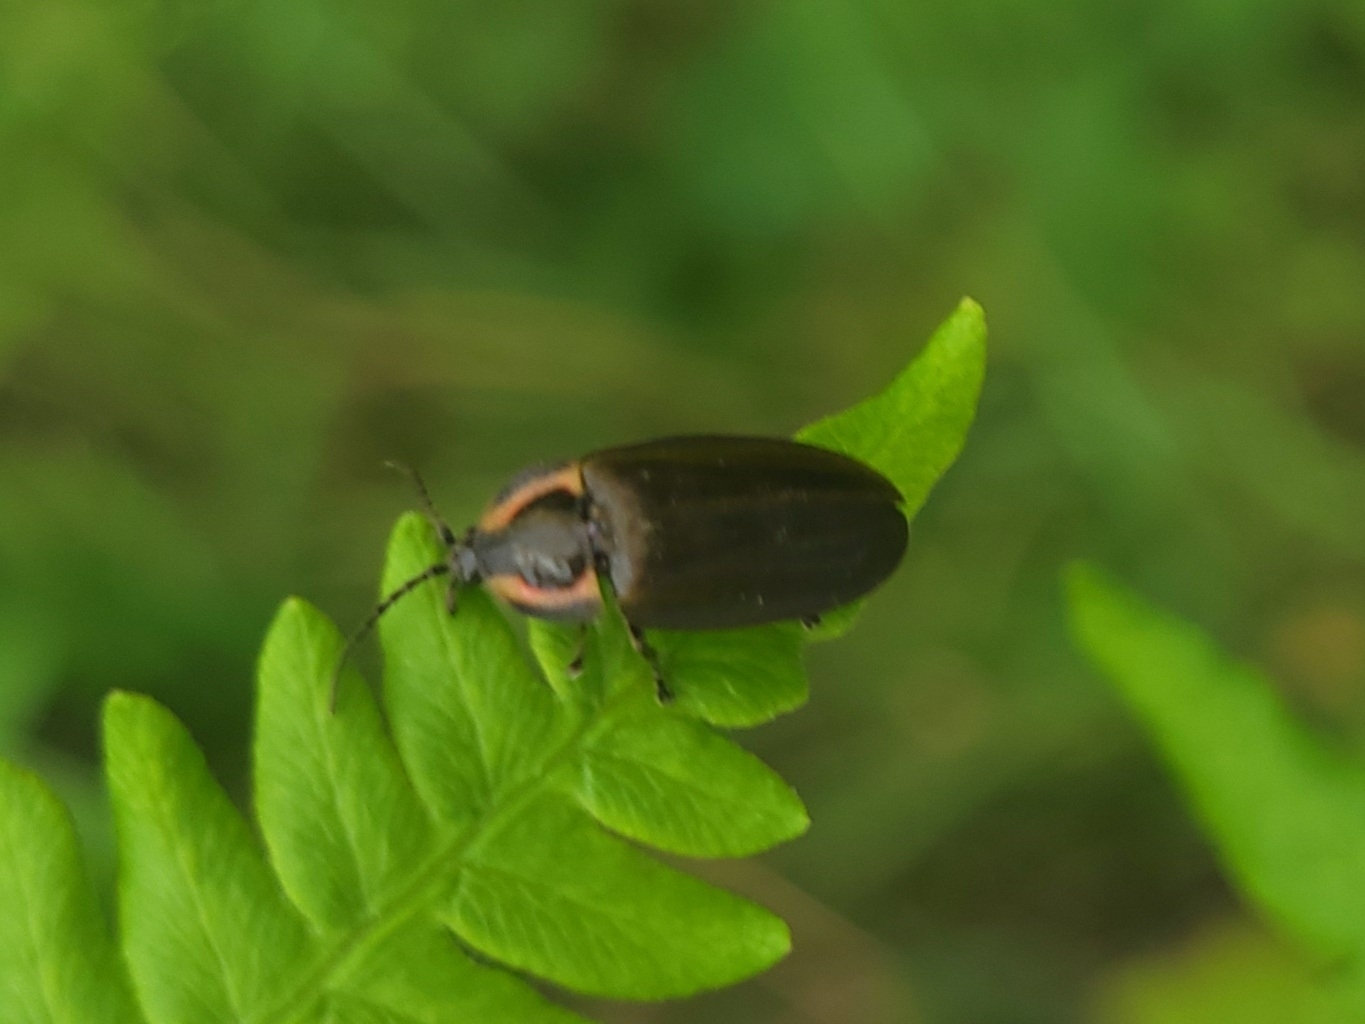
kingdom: Animalia
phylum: Arthropoda
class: Insecta
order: Coleoptera
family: Lampyridae
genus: Photinus
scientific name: Photinus corrusca
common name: Winter firefly
